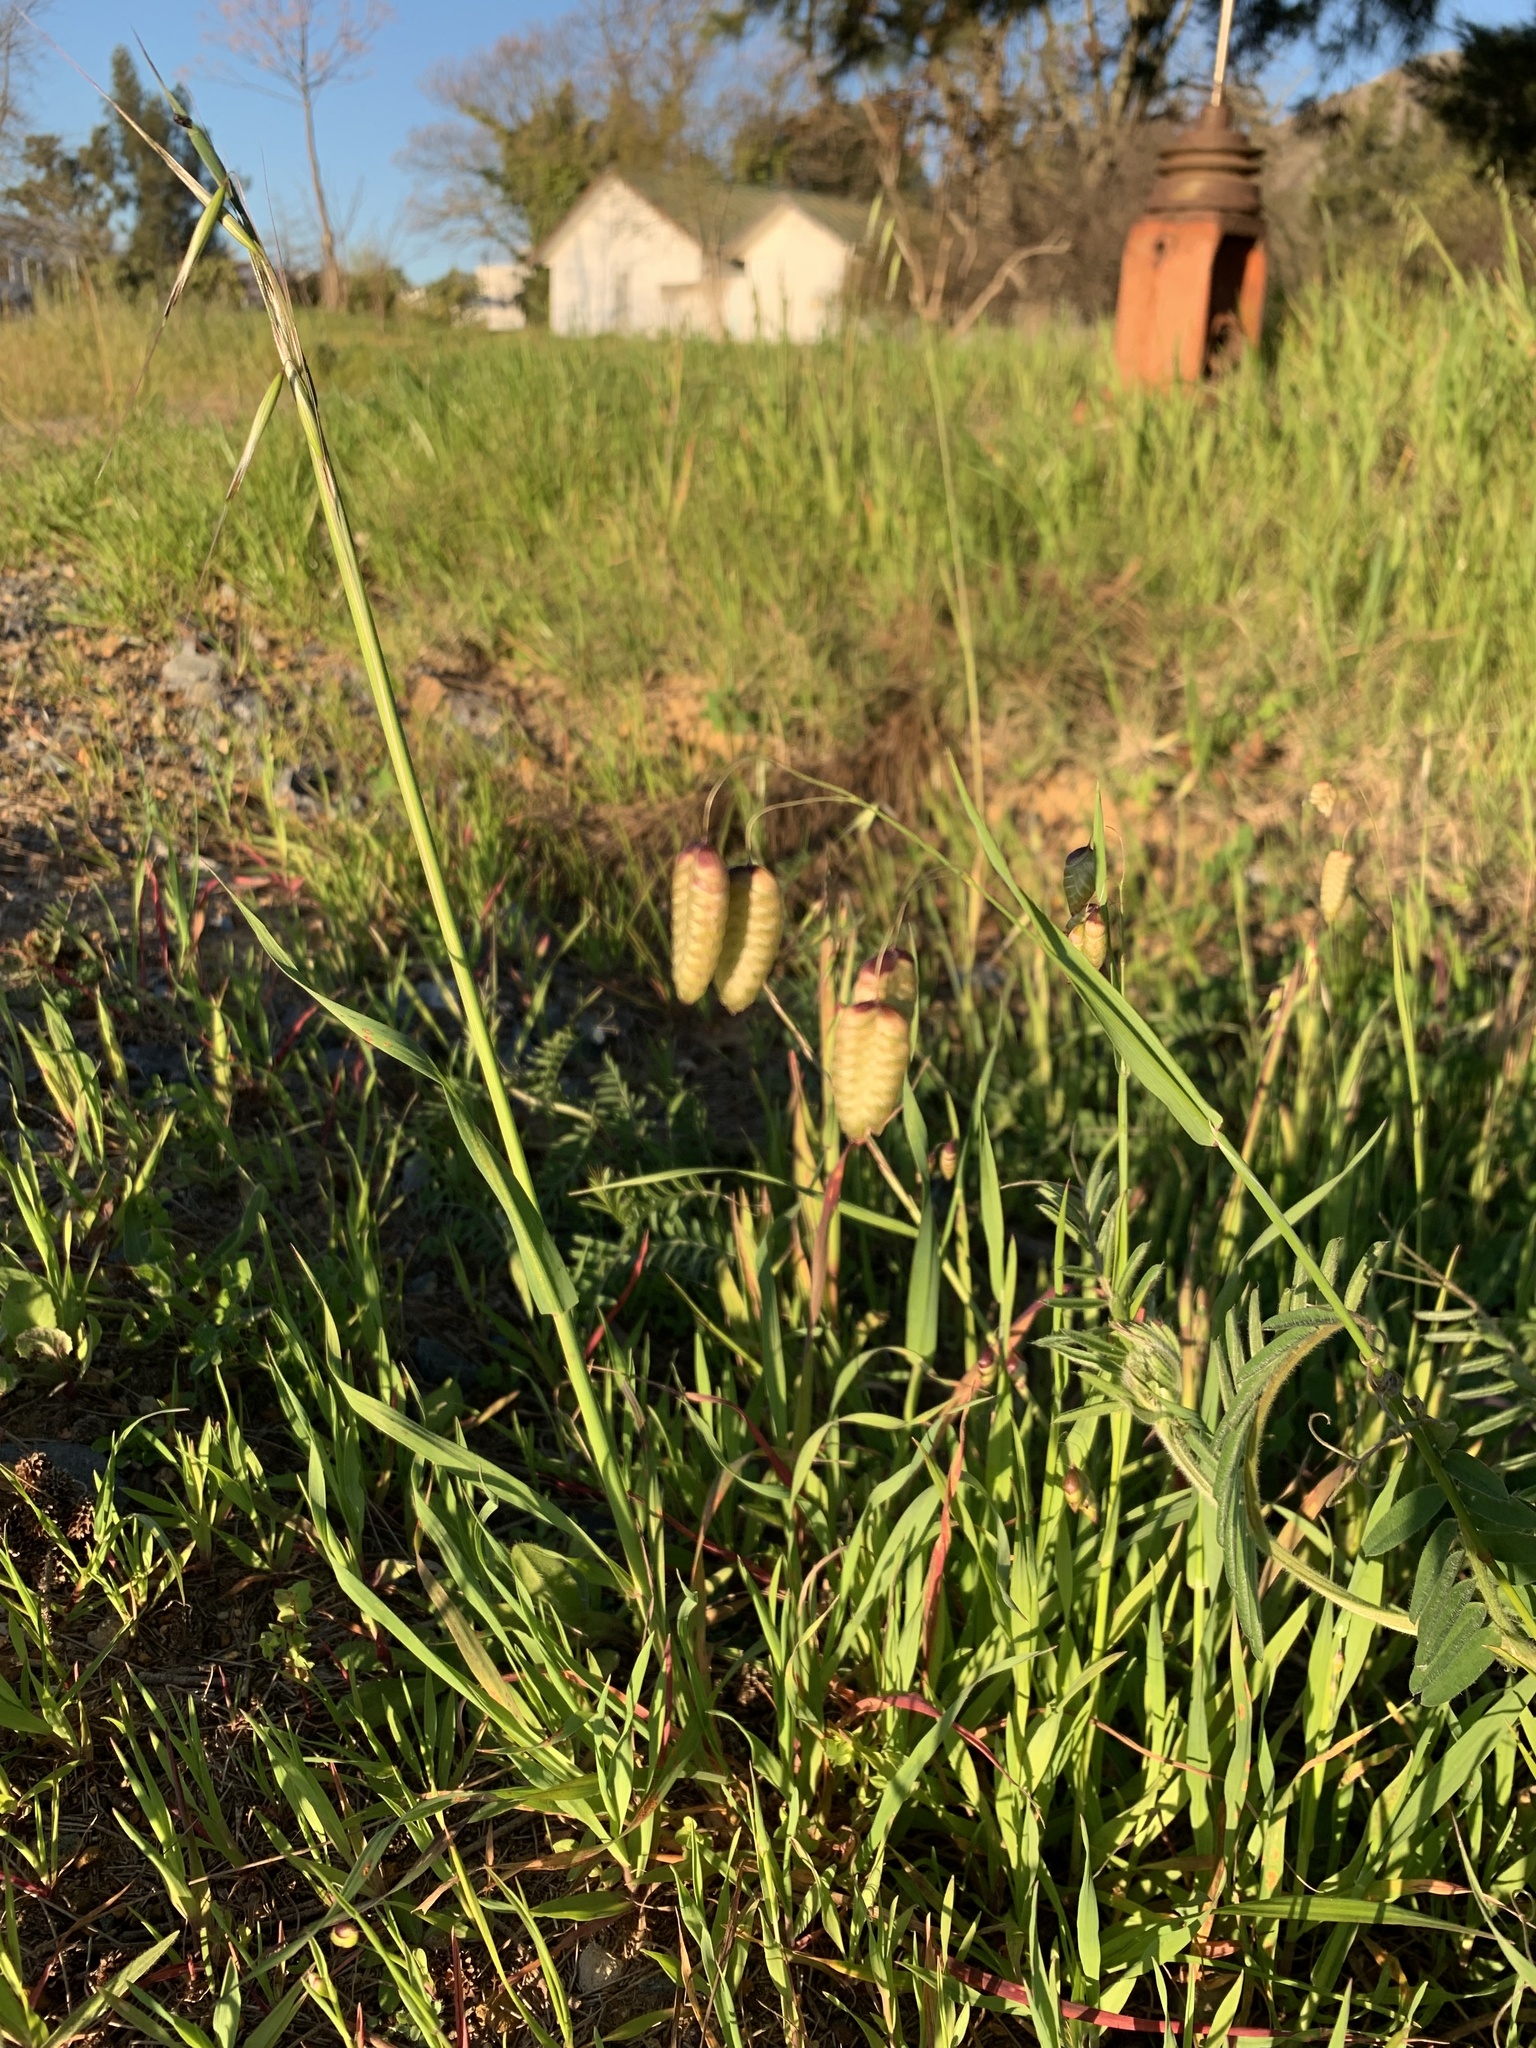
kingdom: Plantae
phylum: Tracheophyta
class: Liliopsida
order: Poales
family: Poaceae
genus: Briza
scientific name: Briza maxima
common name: Big quakinggrass
